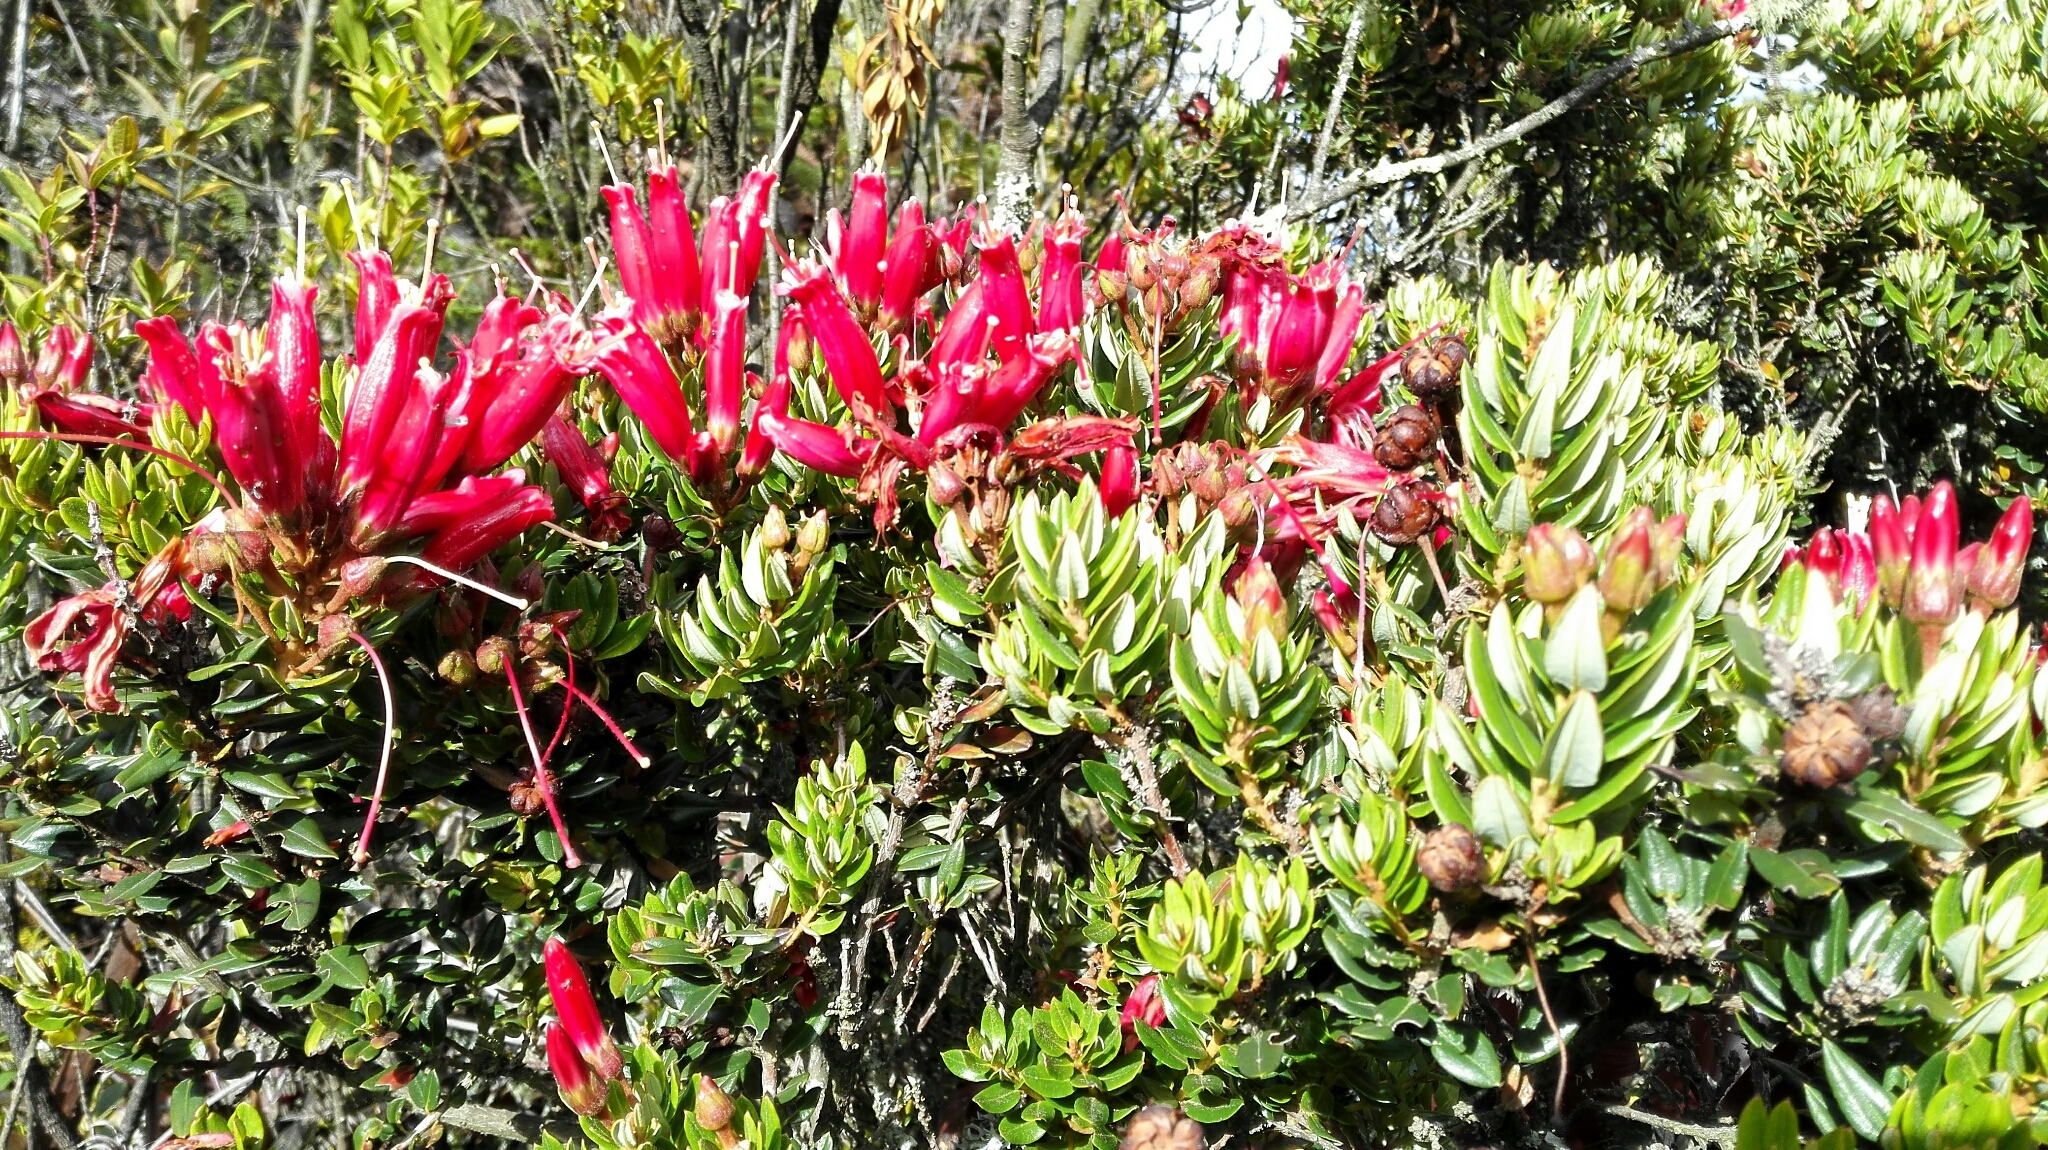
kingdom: Plantae
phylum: Tracheophyta
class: Magnoliopsida
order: Ericales
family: Ericaceae
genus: Bejaria
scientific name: Bejaria resinosa
